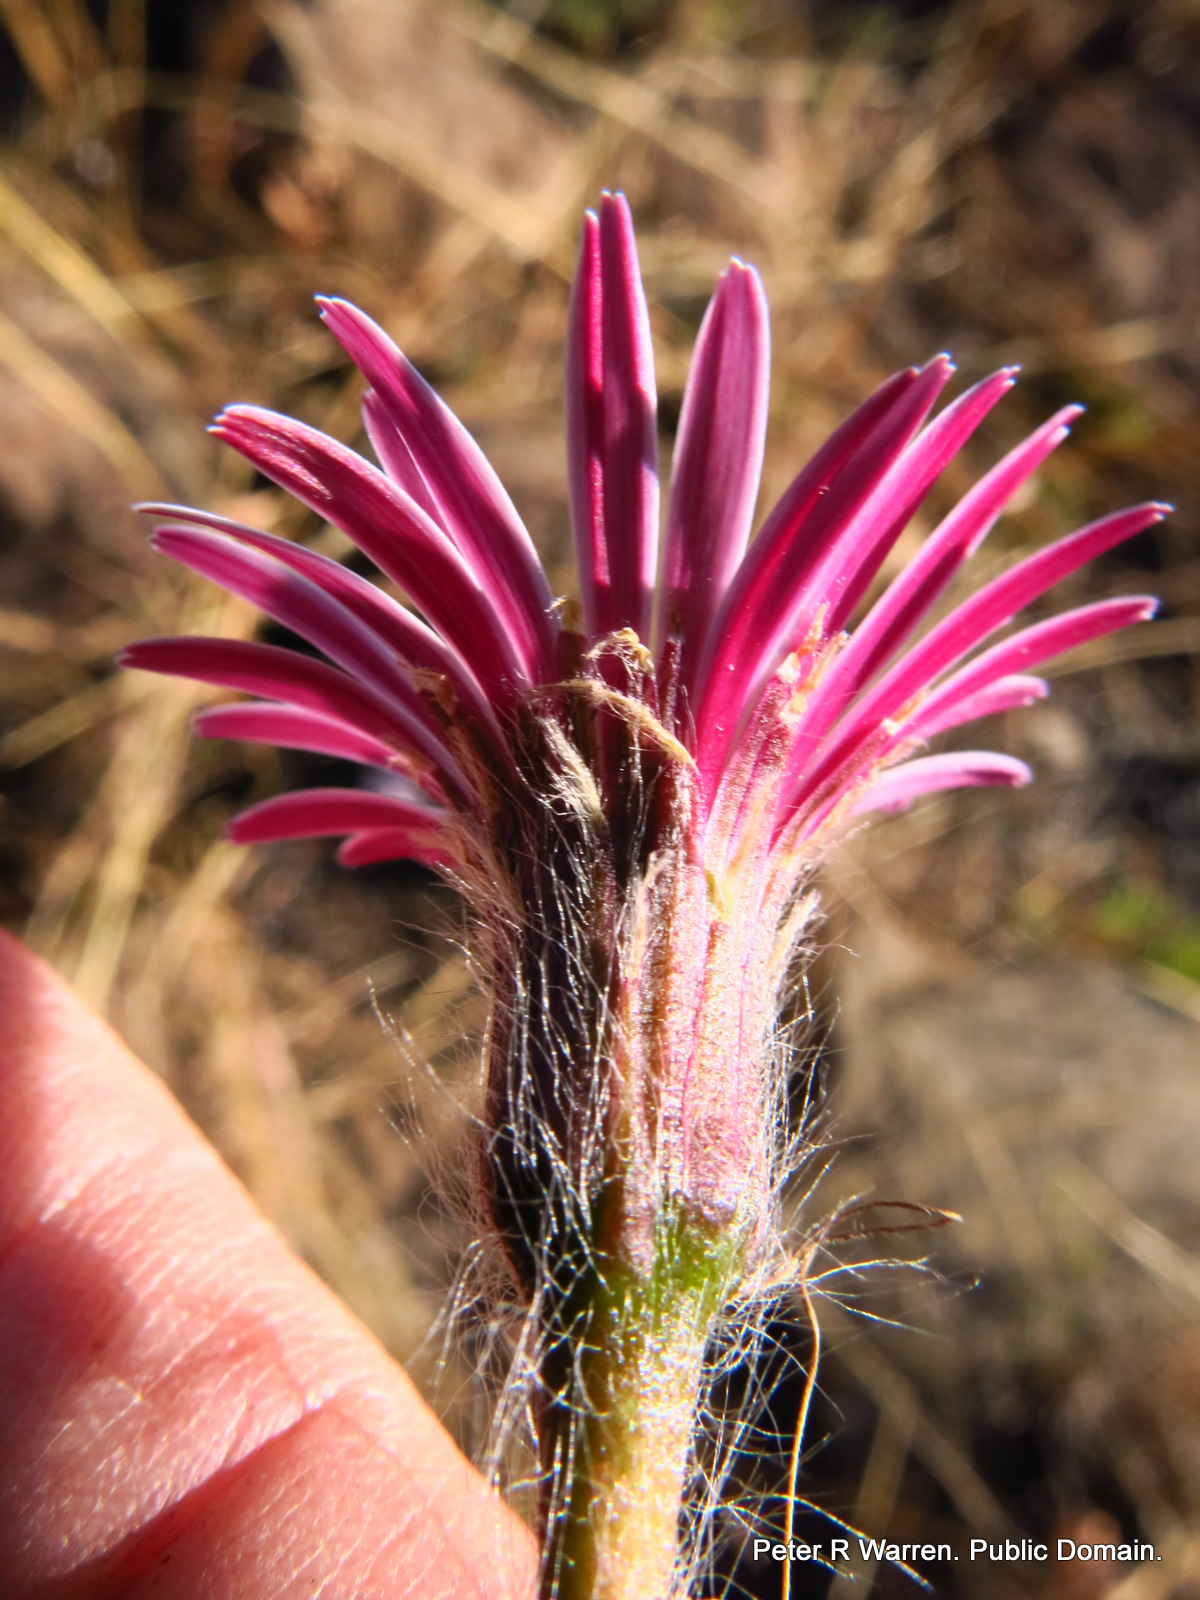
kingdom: Plantae
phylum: Tracheophyta
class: Magnoliopsida
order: Asterales
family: Asteraceae
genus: Gerbera
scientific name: Gerbera natalensis
